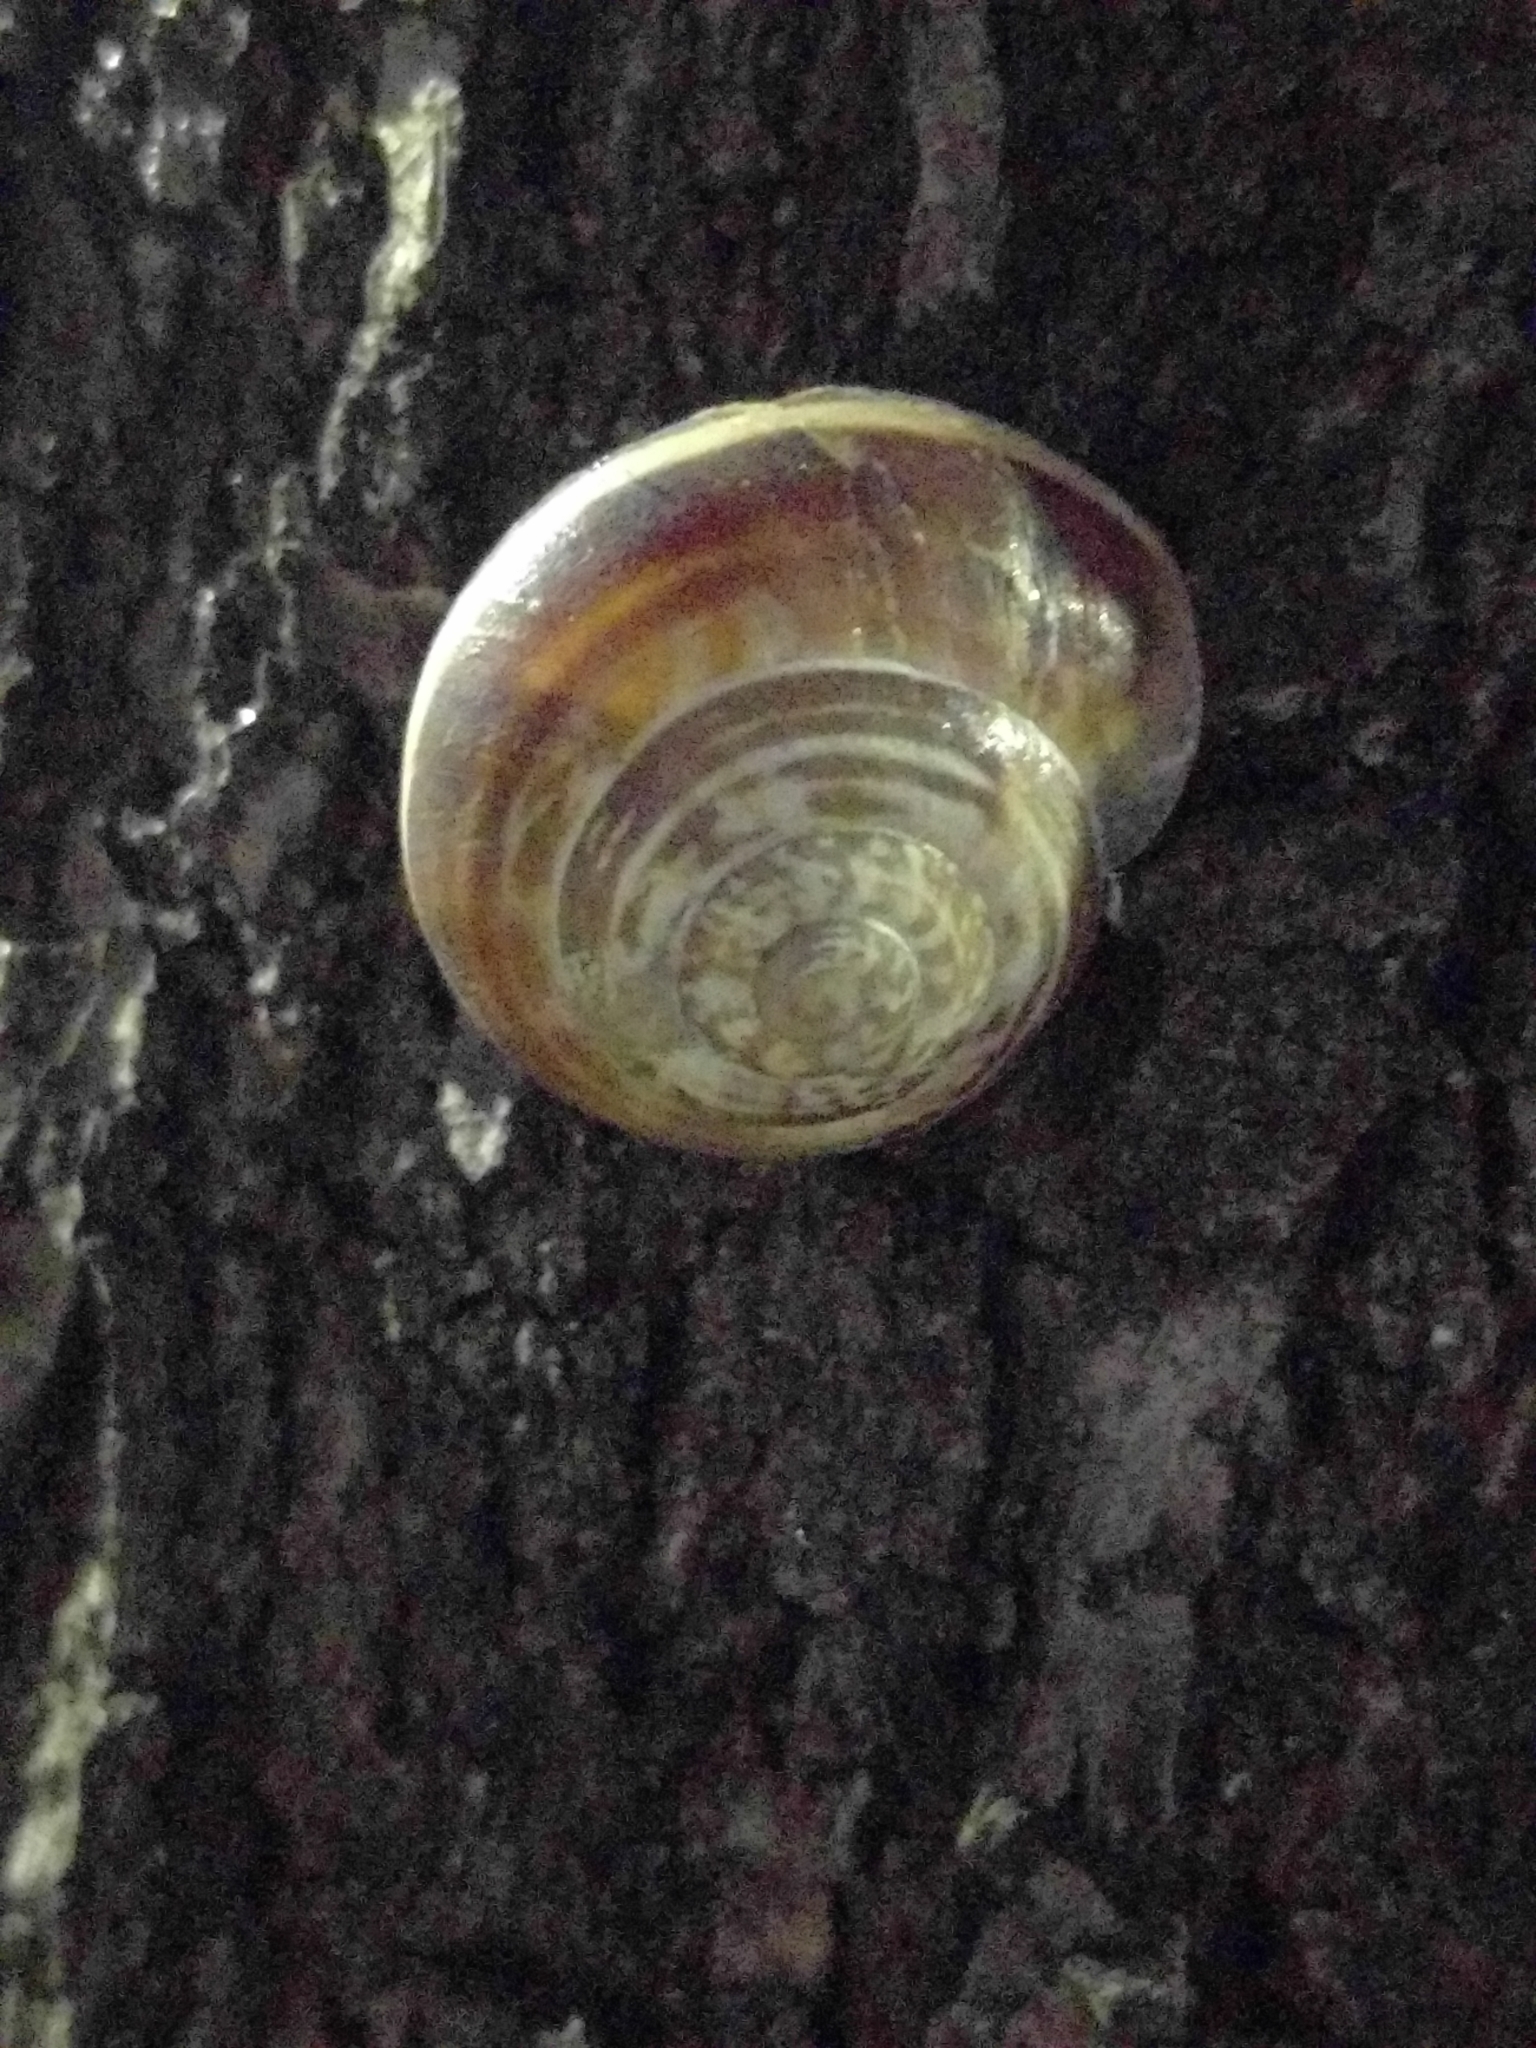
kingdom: Animalia
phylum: Mollusca
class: Gastropoda
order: Stylommatophora
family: Helicidae
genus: Eobania
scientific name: Eobania vermiculata
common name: Chocolateband snail
